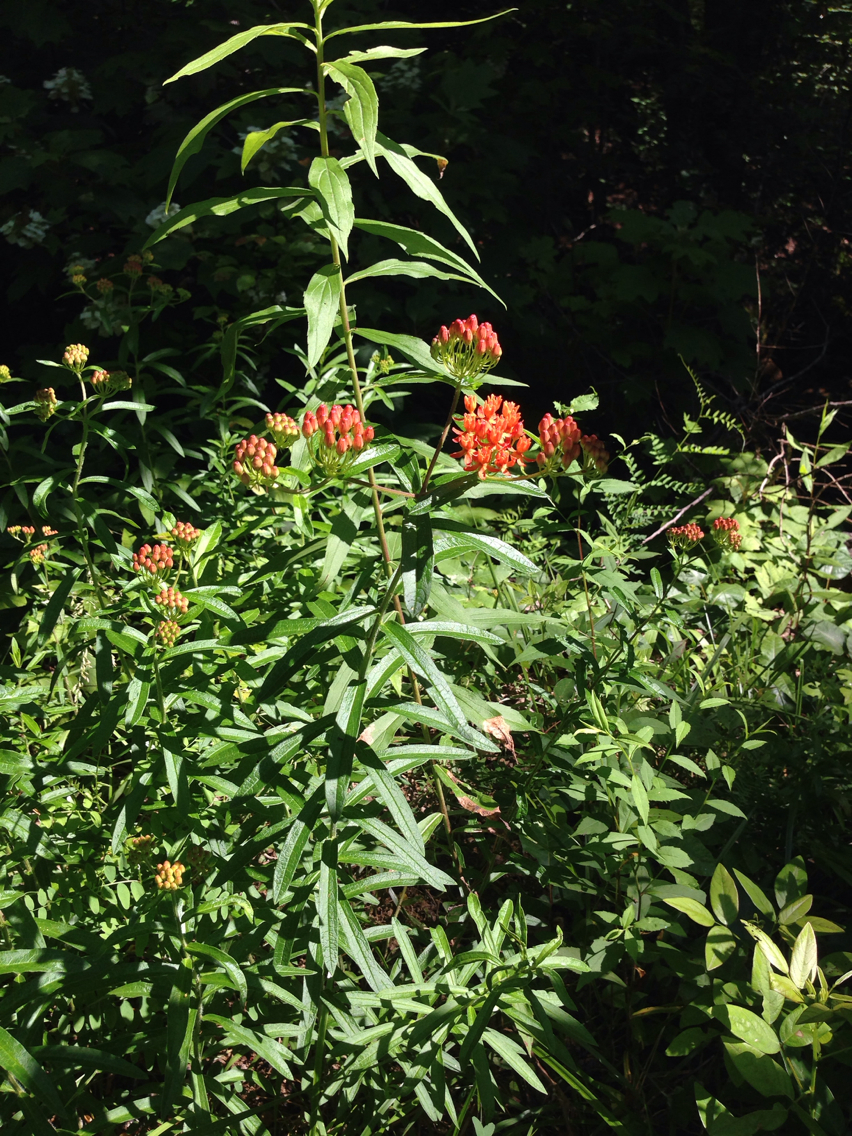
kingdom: Plantae
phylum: Tracheophyta
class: Magnoliopsida
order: Gentianales
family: Apocynaceae
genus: Asclepias
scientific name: Asclepias tuberosa
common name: Butterfly milkweed
